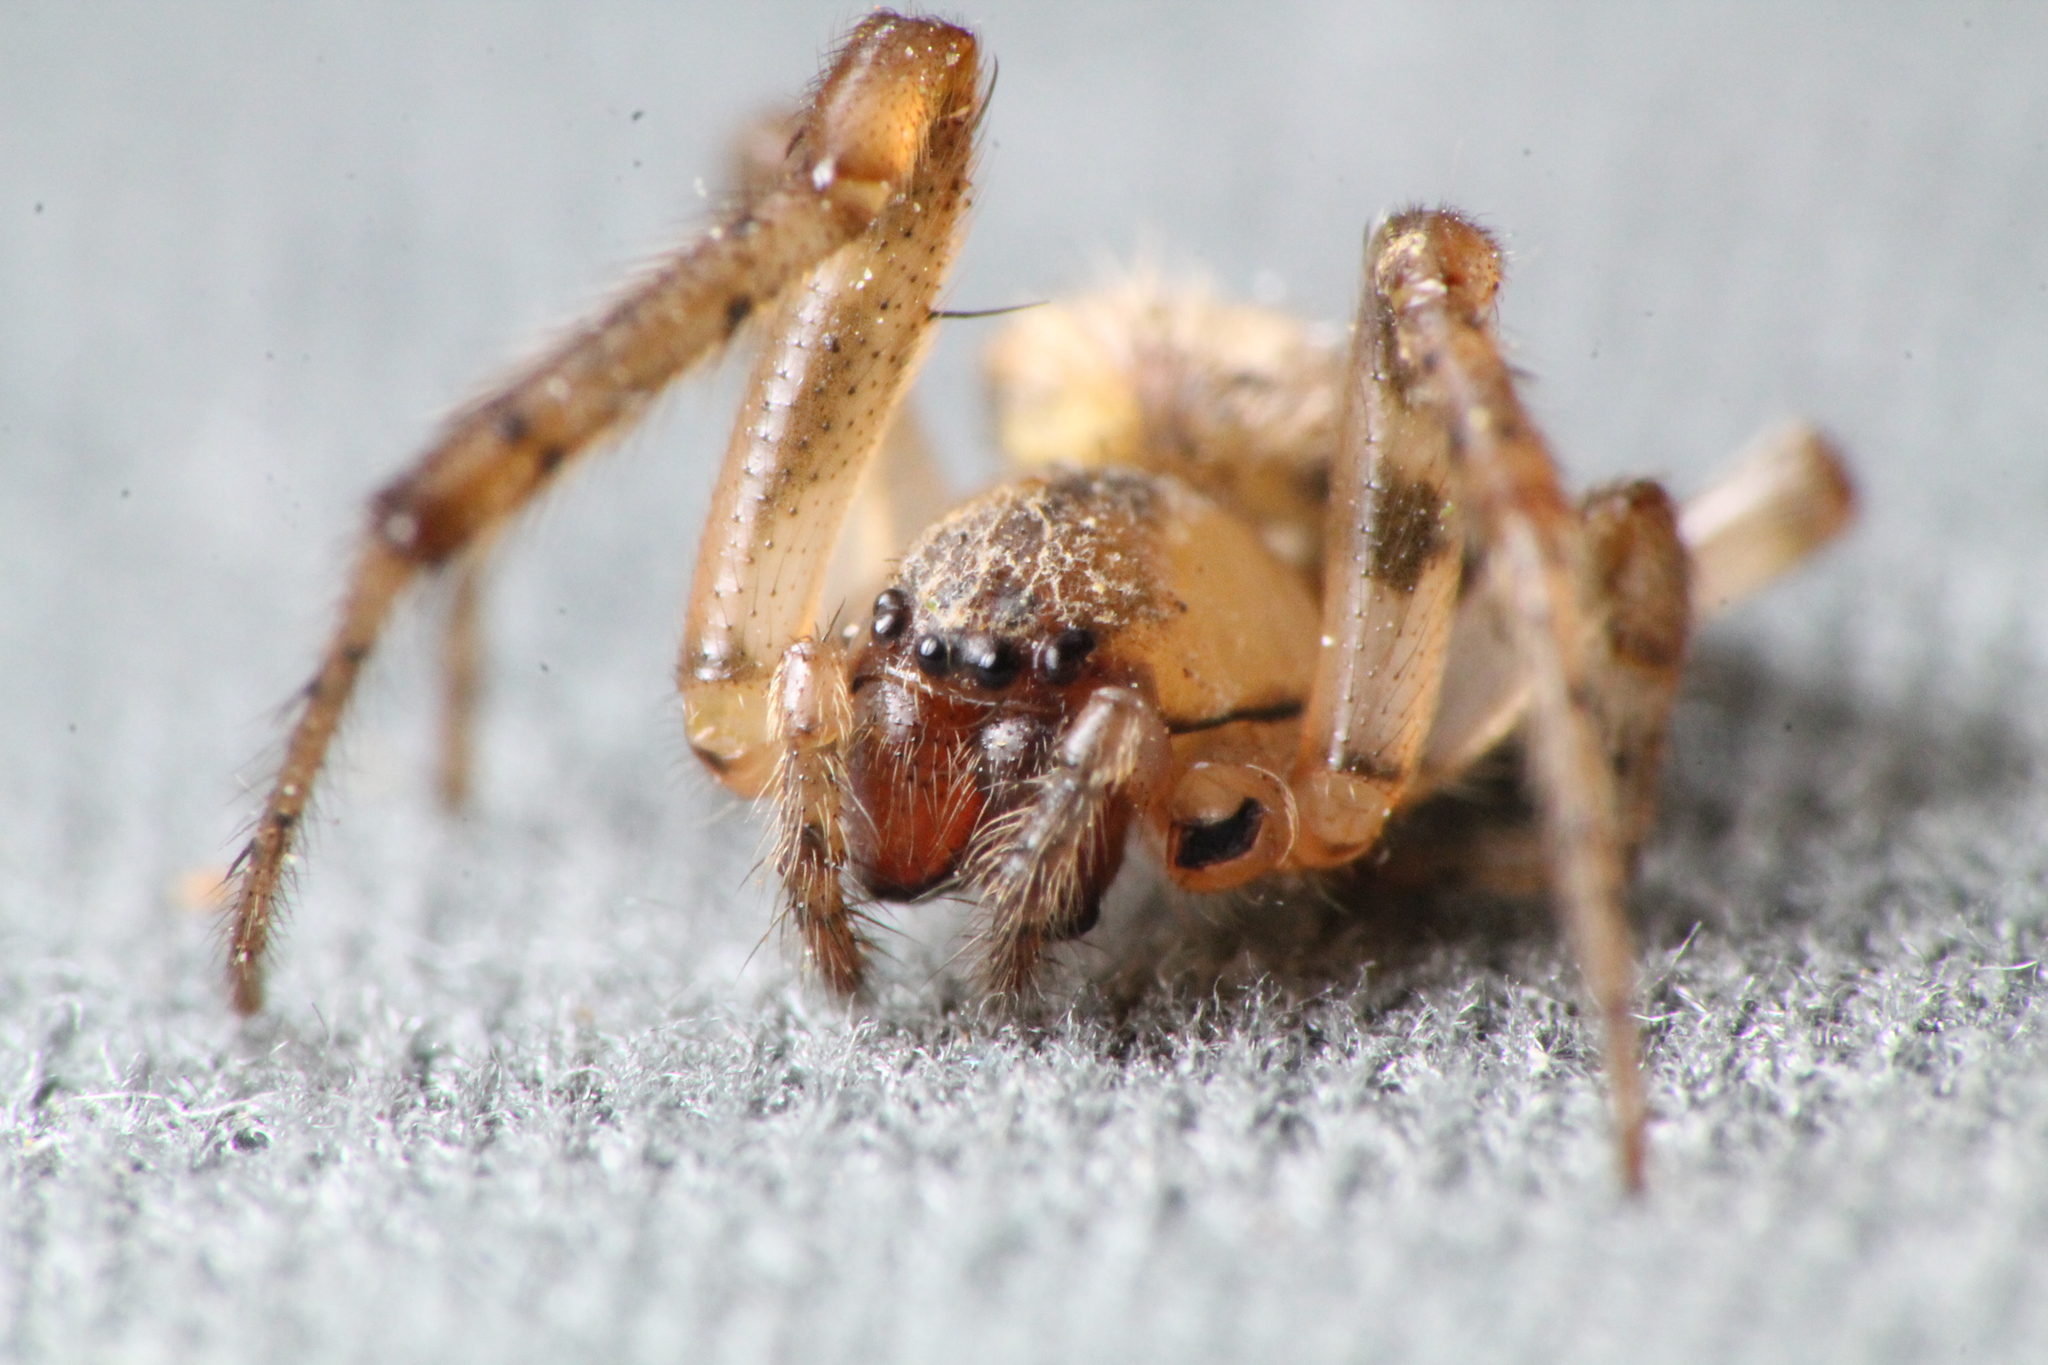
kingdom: Animalia
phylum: Arthropoda
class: Arachnida
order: Araneae
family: Araneidae
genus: Zygiella
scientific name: Zygiella x-notata
